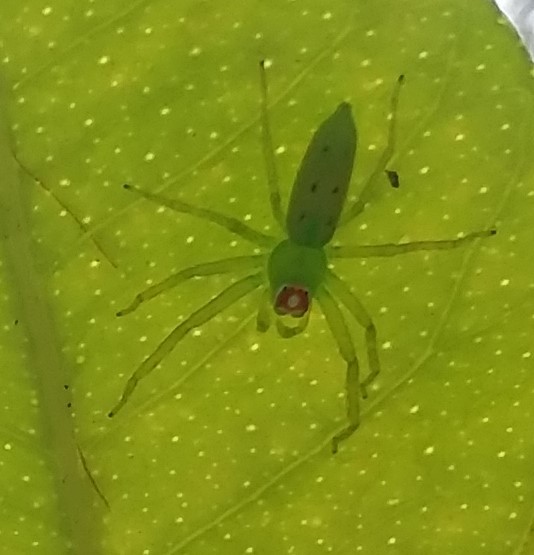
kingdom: Animalia
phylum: Arthropoda
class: Arachnida
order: Araneae
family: Salticidae
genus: Lyssomanes
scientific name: Lyssomanes viridis
